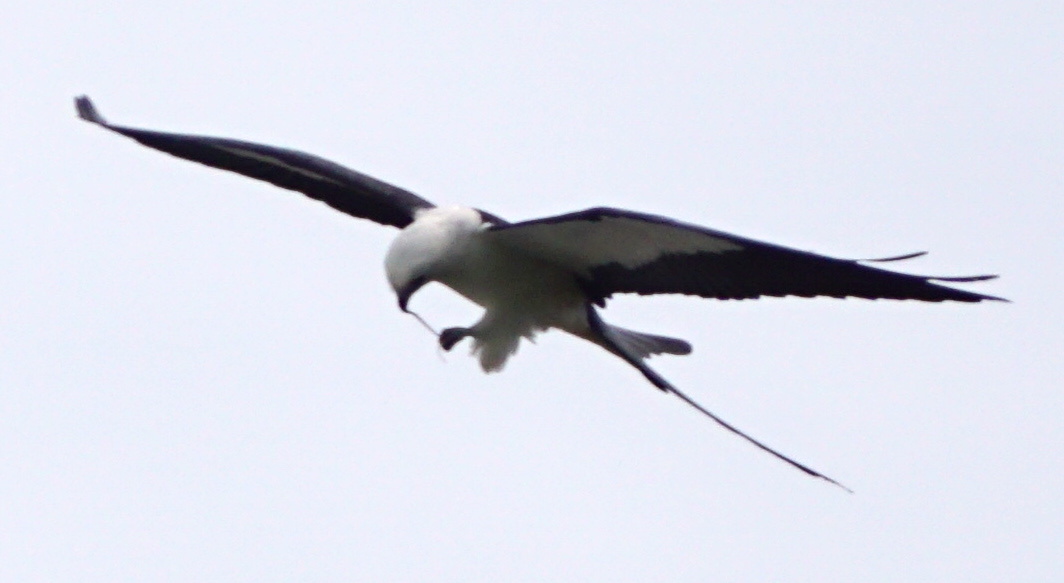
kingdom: Animalia
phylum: Chordata
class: Aves
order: Accipitriformes
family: Accipitridae
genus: Elanoides
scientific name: Elanoides forficatus
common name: Swallow-tailed kite
